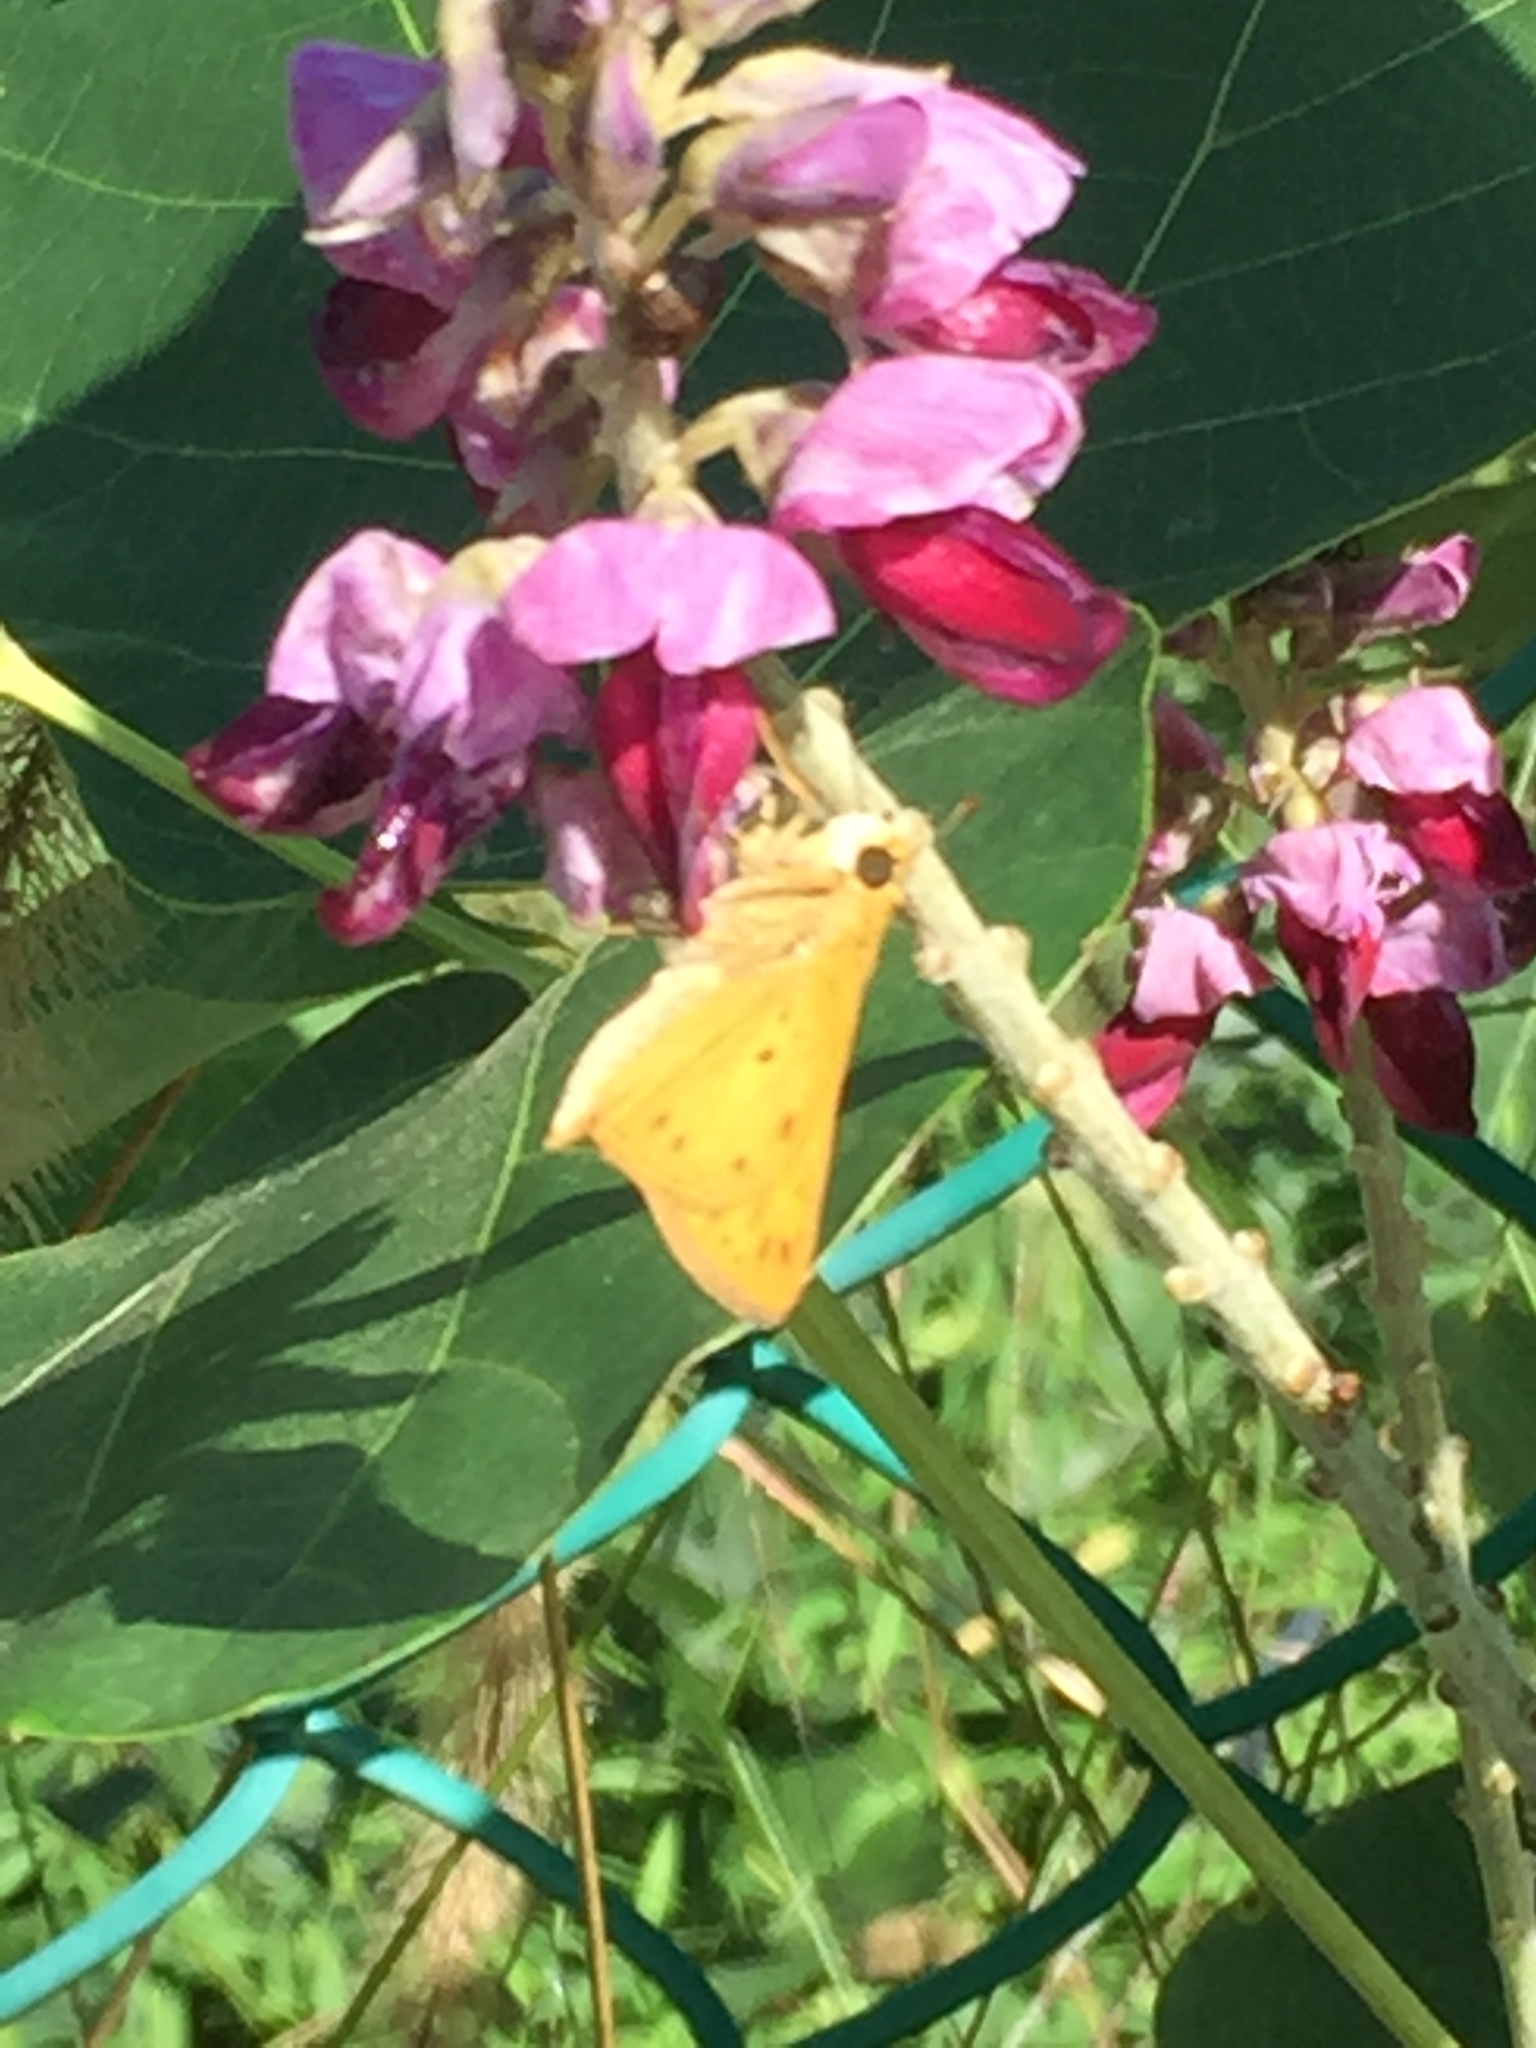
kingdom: Animalia
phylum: Arthropoda
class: Insecta
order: Lepidoptera
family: Hesperiidae
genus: Hylephila
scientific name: Hylephila phyleus
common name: Fiery skipper
